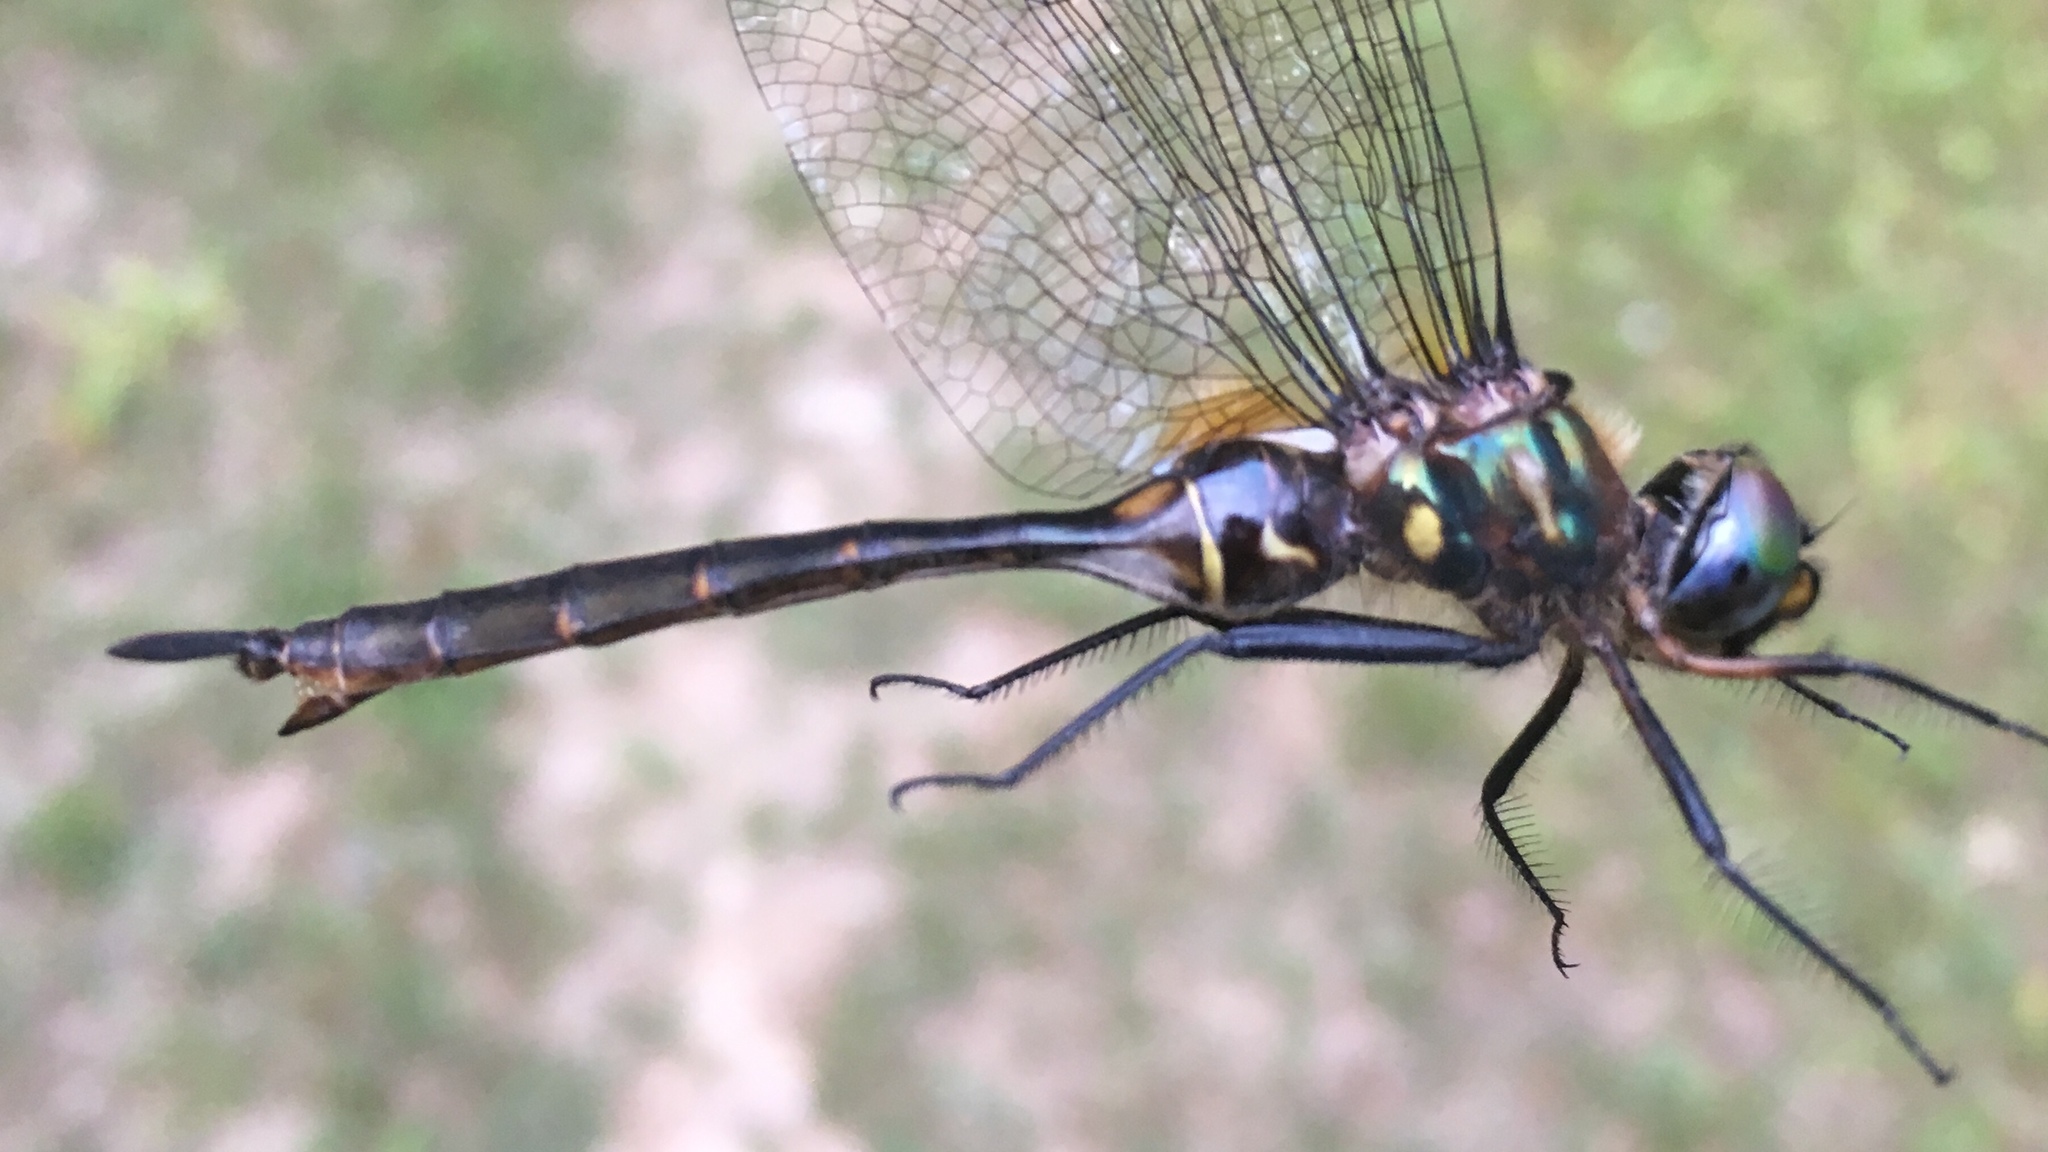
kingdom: Animalia
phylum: Arthropoda
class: Insecta
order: Odonata
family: Corduliidae
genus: Somatochlora
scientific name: Somatochlora walshii
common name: Brush-tipped emerald
